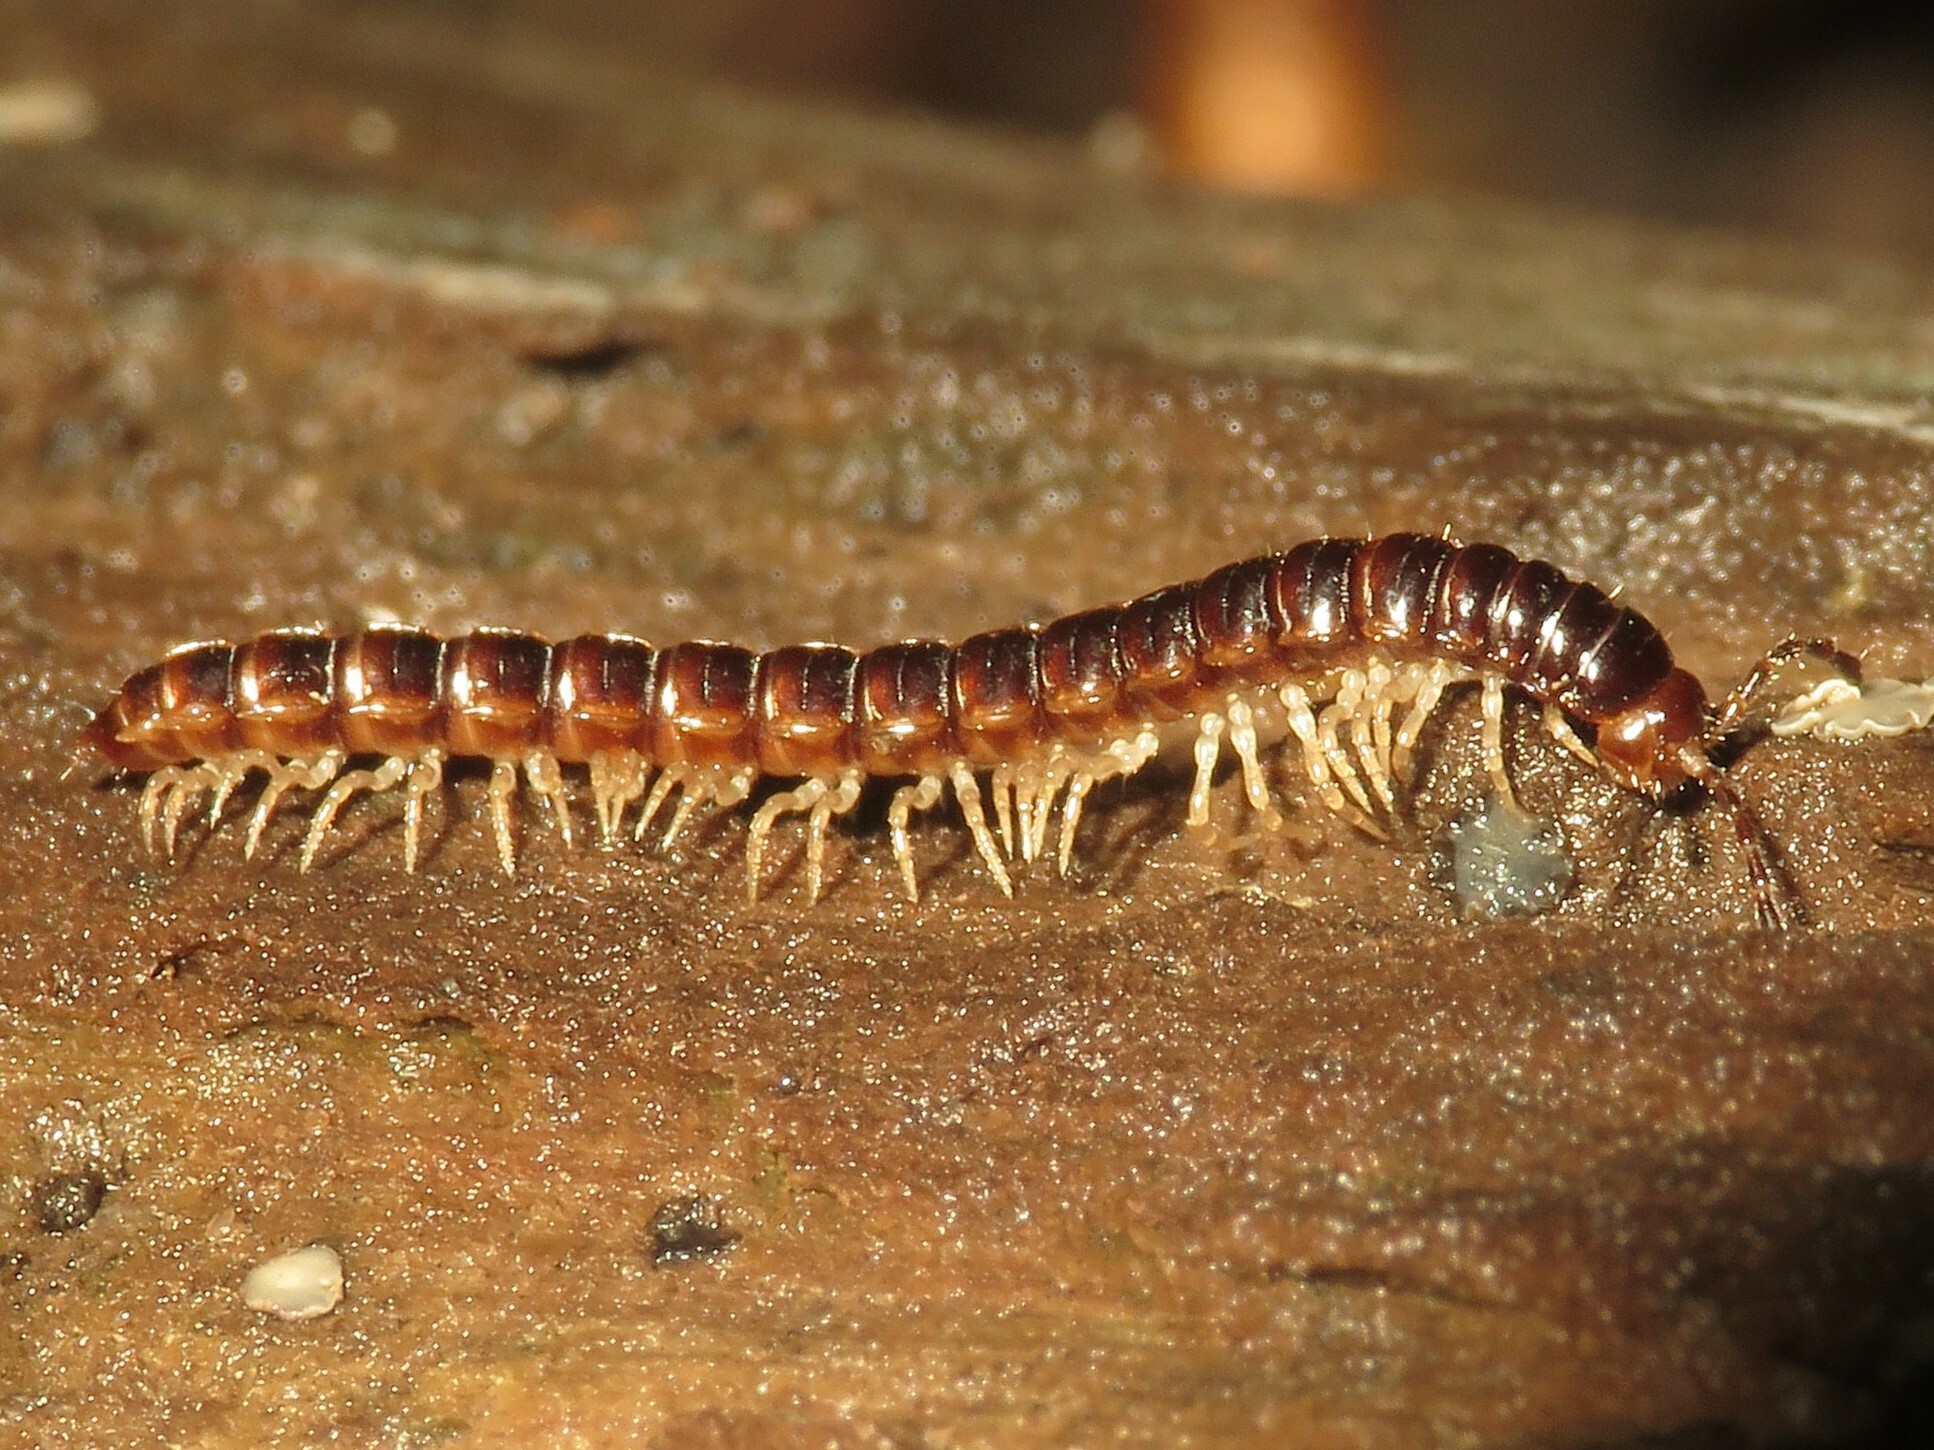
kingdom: Animalia
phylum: Arthropoda
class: Diplopoda
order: Polydesmida
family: Paradoxosomatidae
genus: Oxidus
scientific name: Oxidus gracilis
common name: Greenhouse millipede
